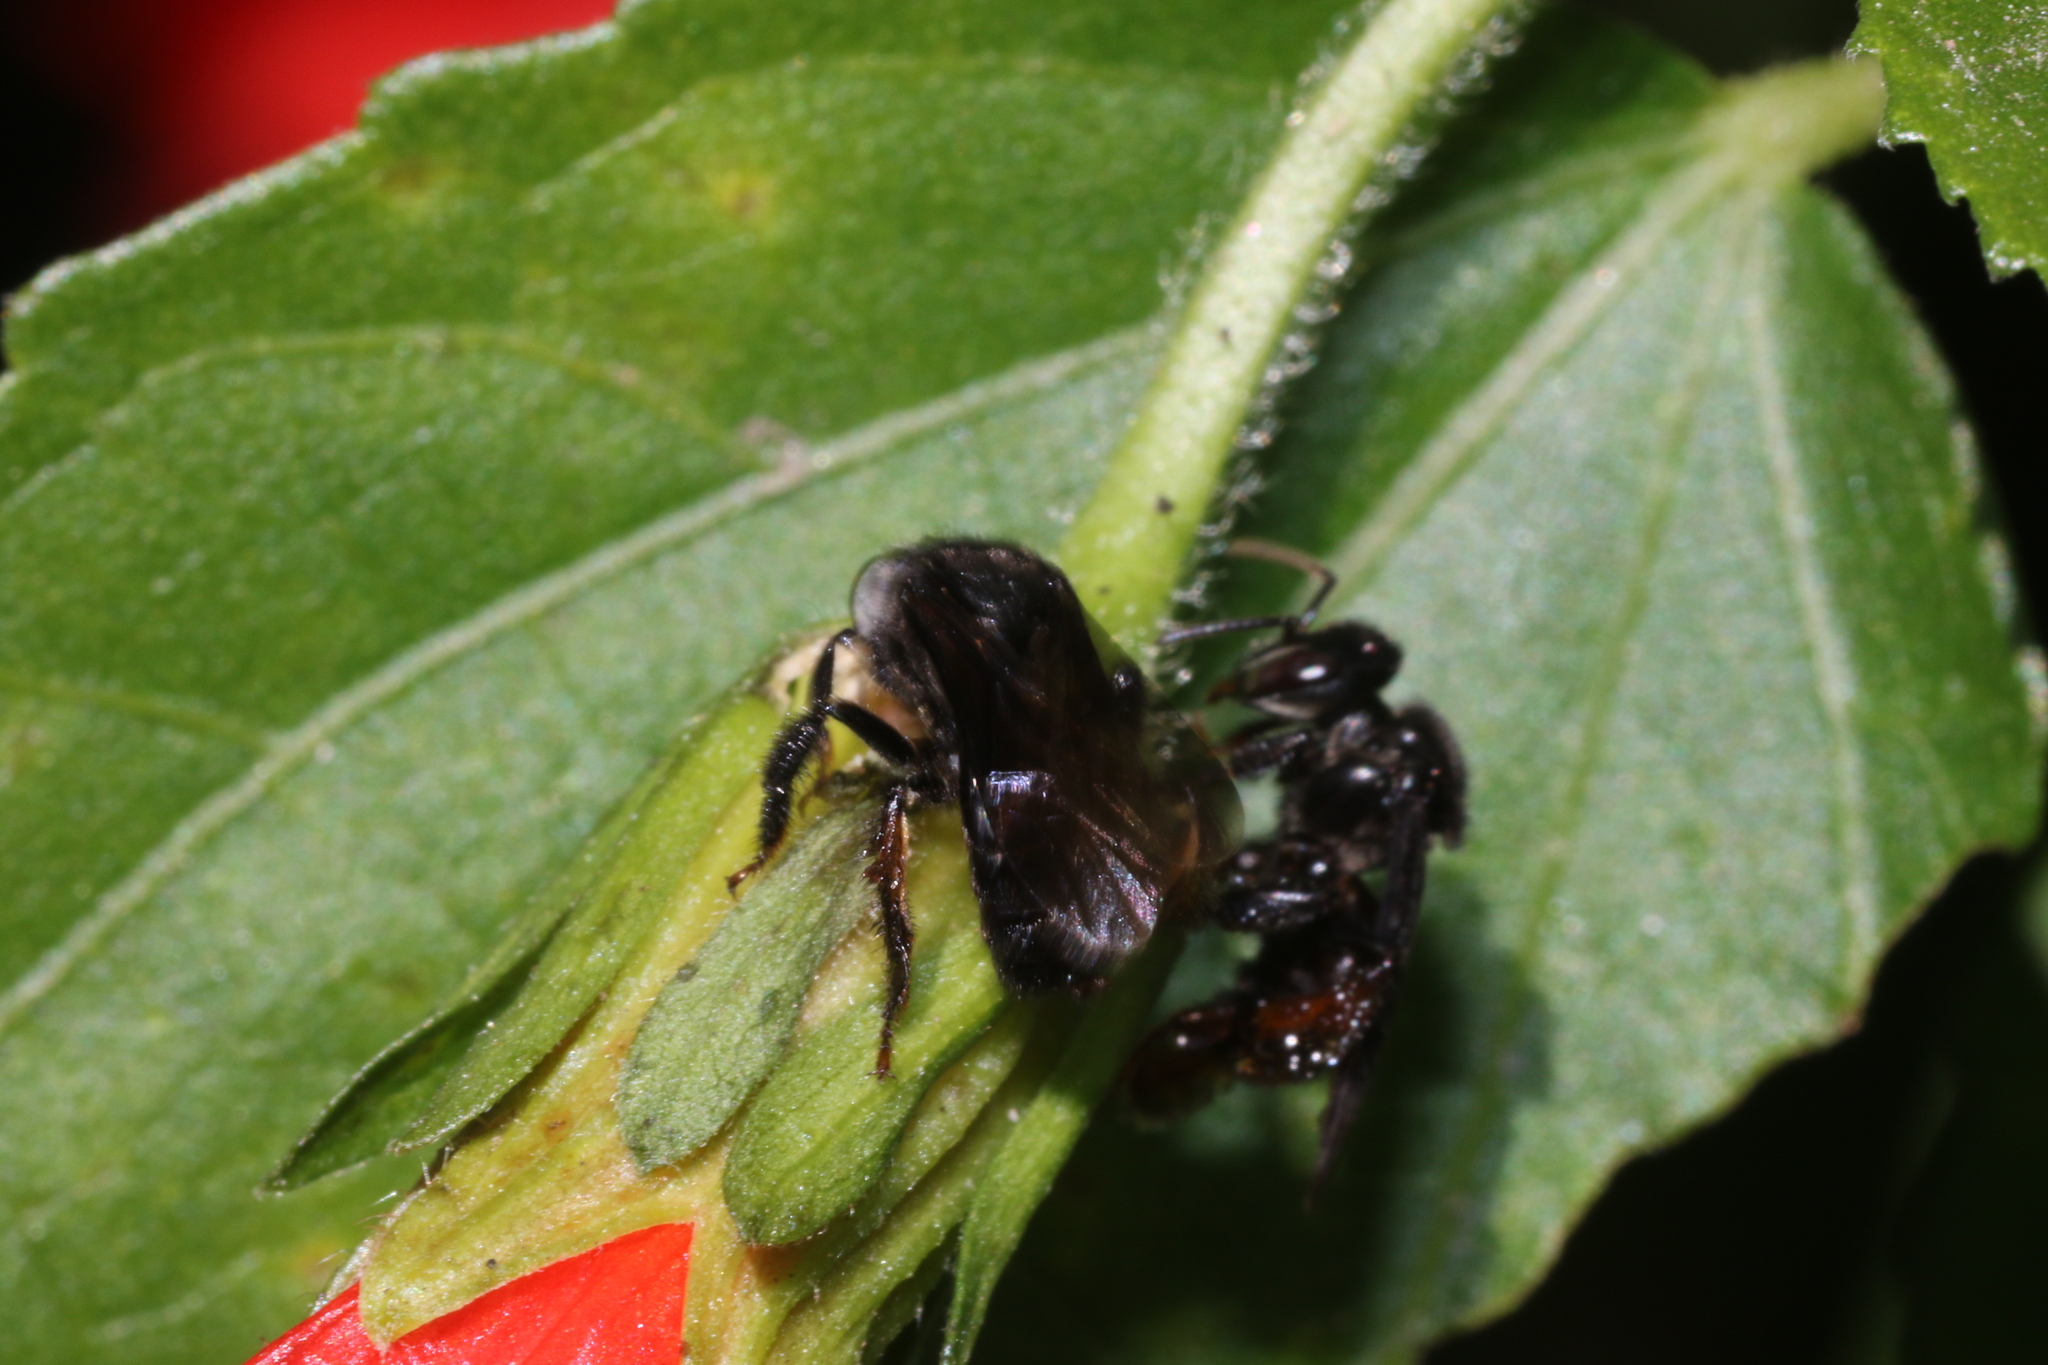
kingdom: Animalia
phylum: Arthropoda
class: Insecta
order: Hymenoptera
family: Apidae
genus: Trigona
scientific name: Trigona spinipes
